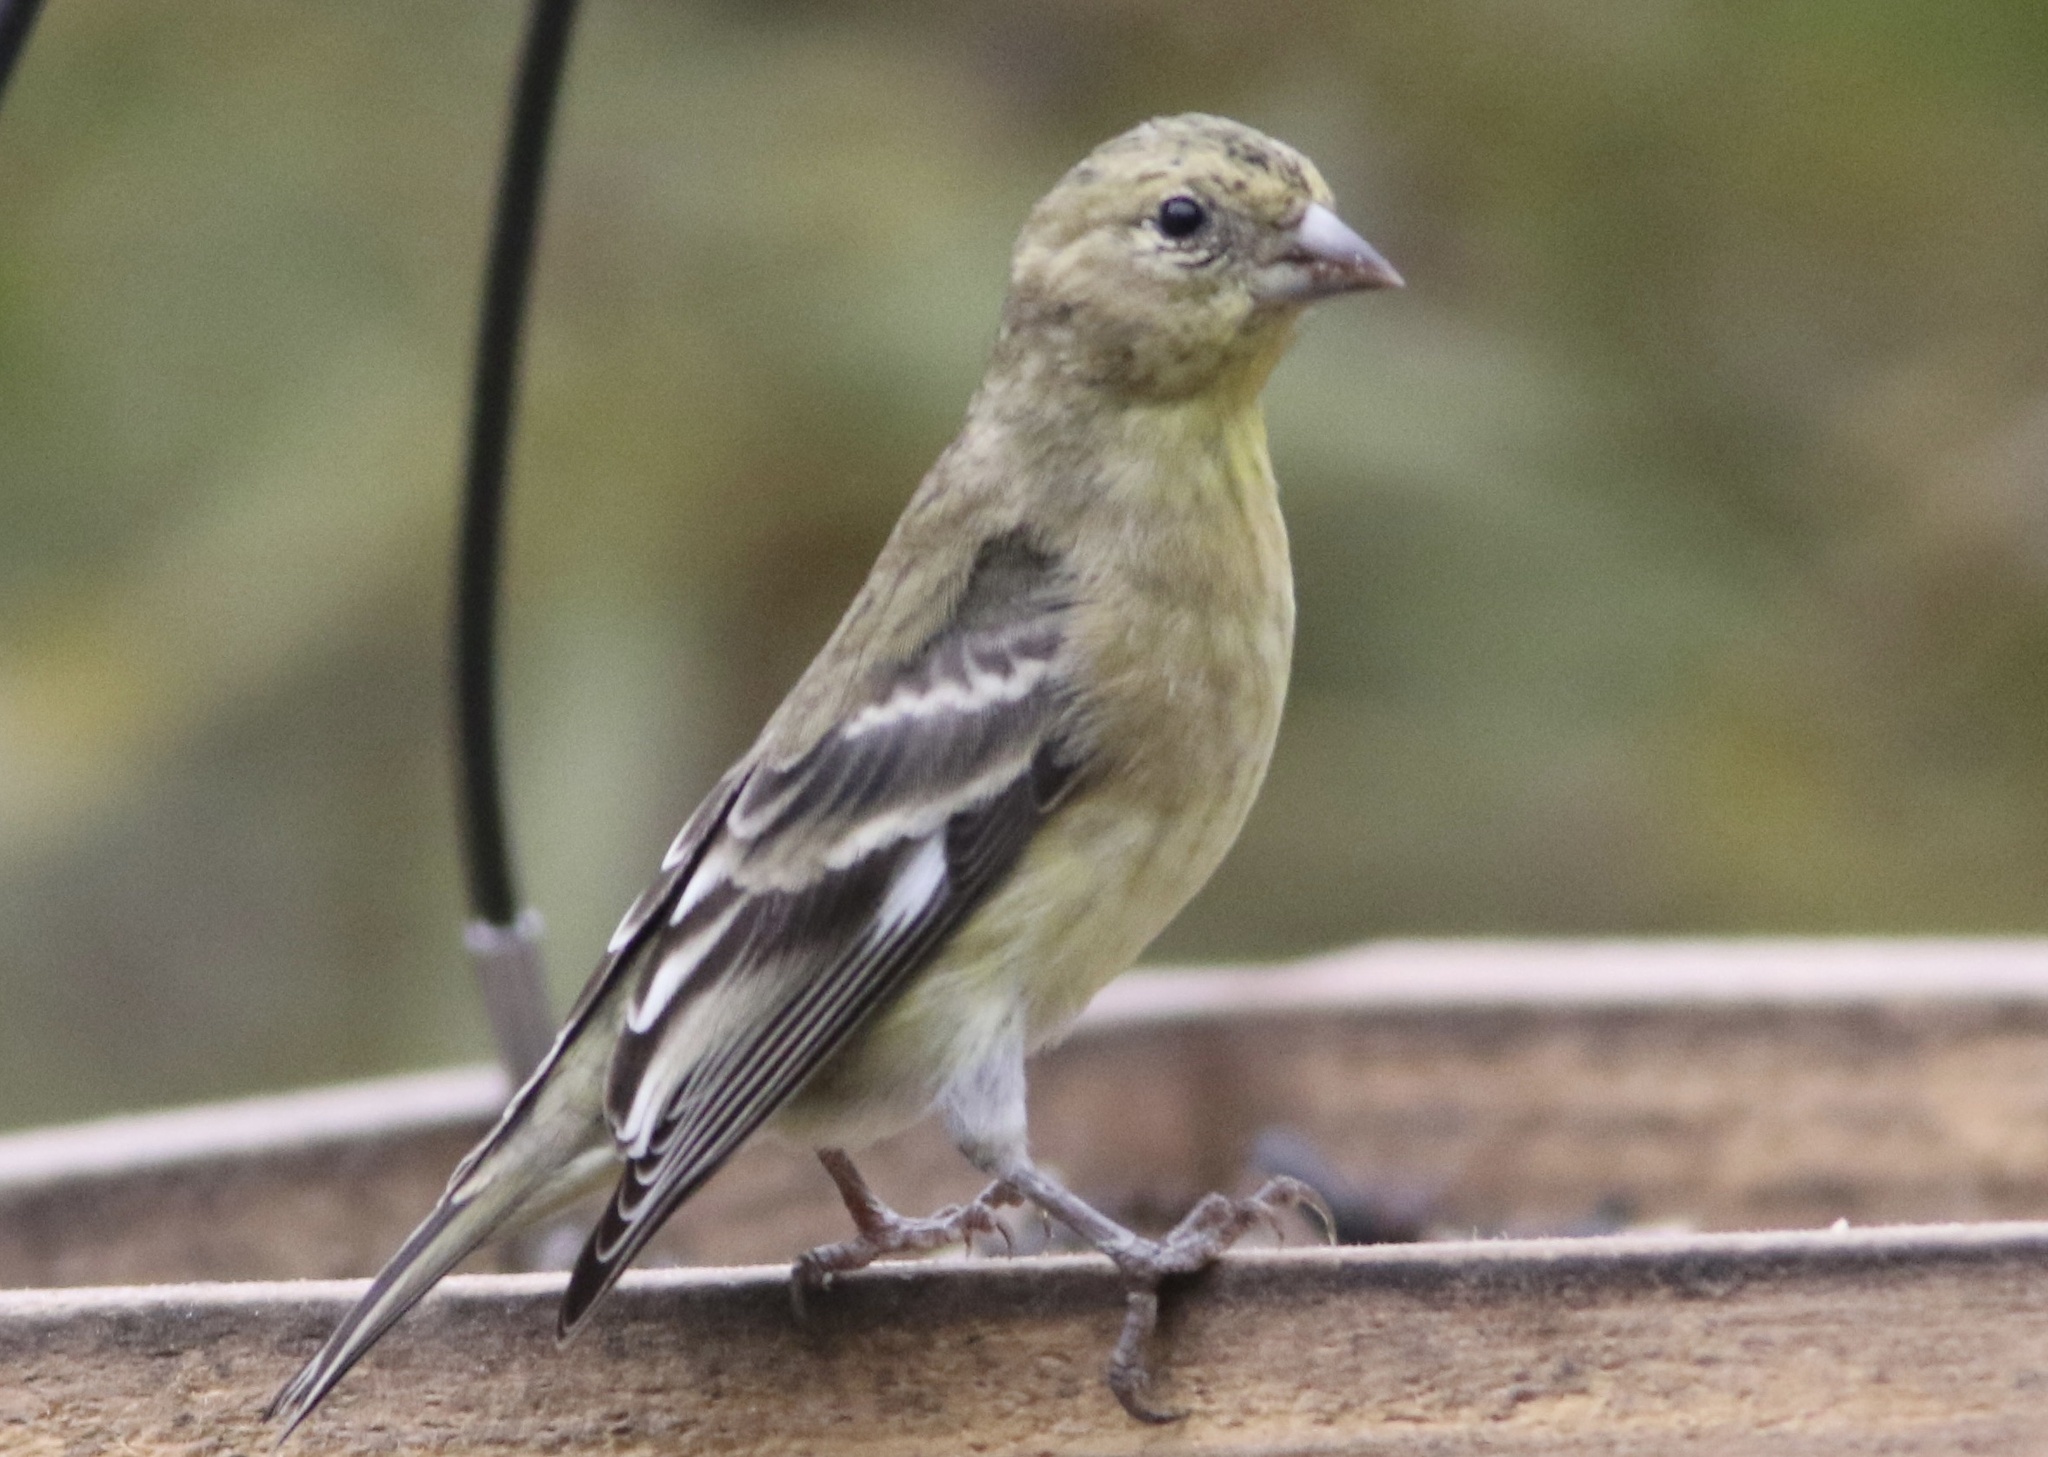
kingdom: Animalia
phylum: Chordata
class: Aves
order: Passeriformes
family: Fringillidae
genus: Spinus
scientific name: Spinus psaltria
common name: Lesser goldfinch
